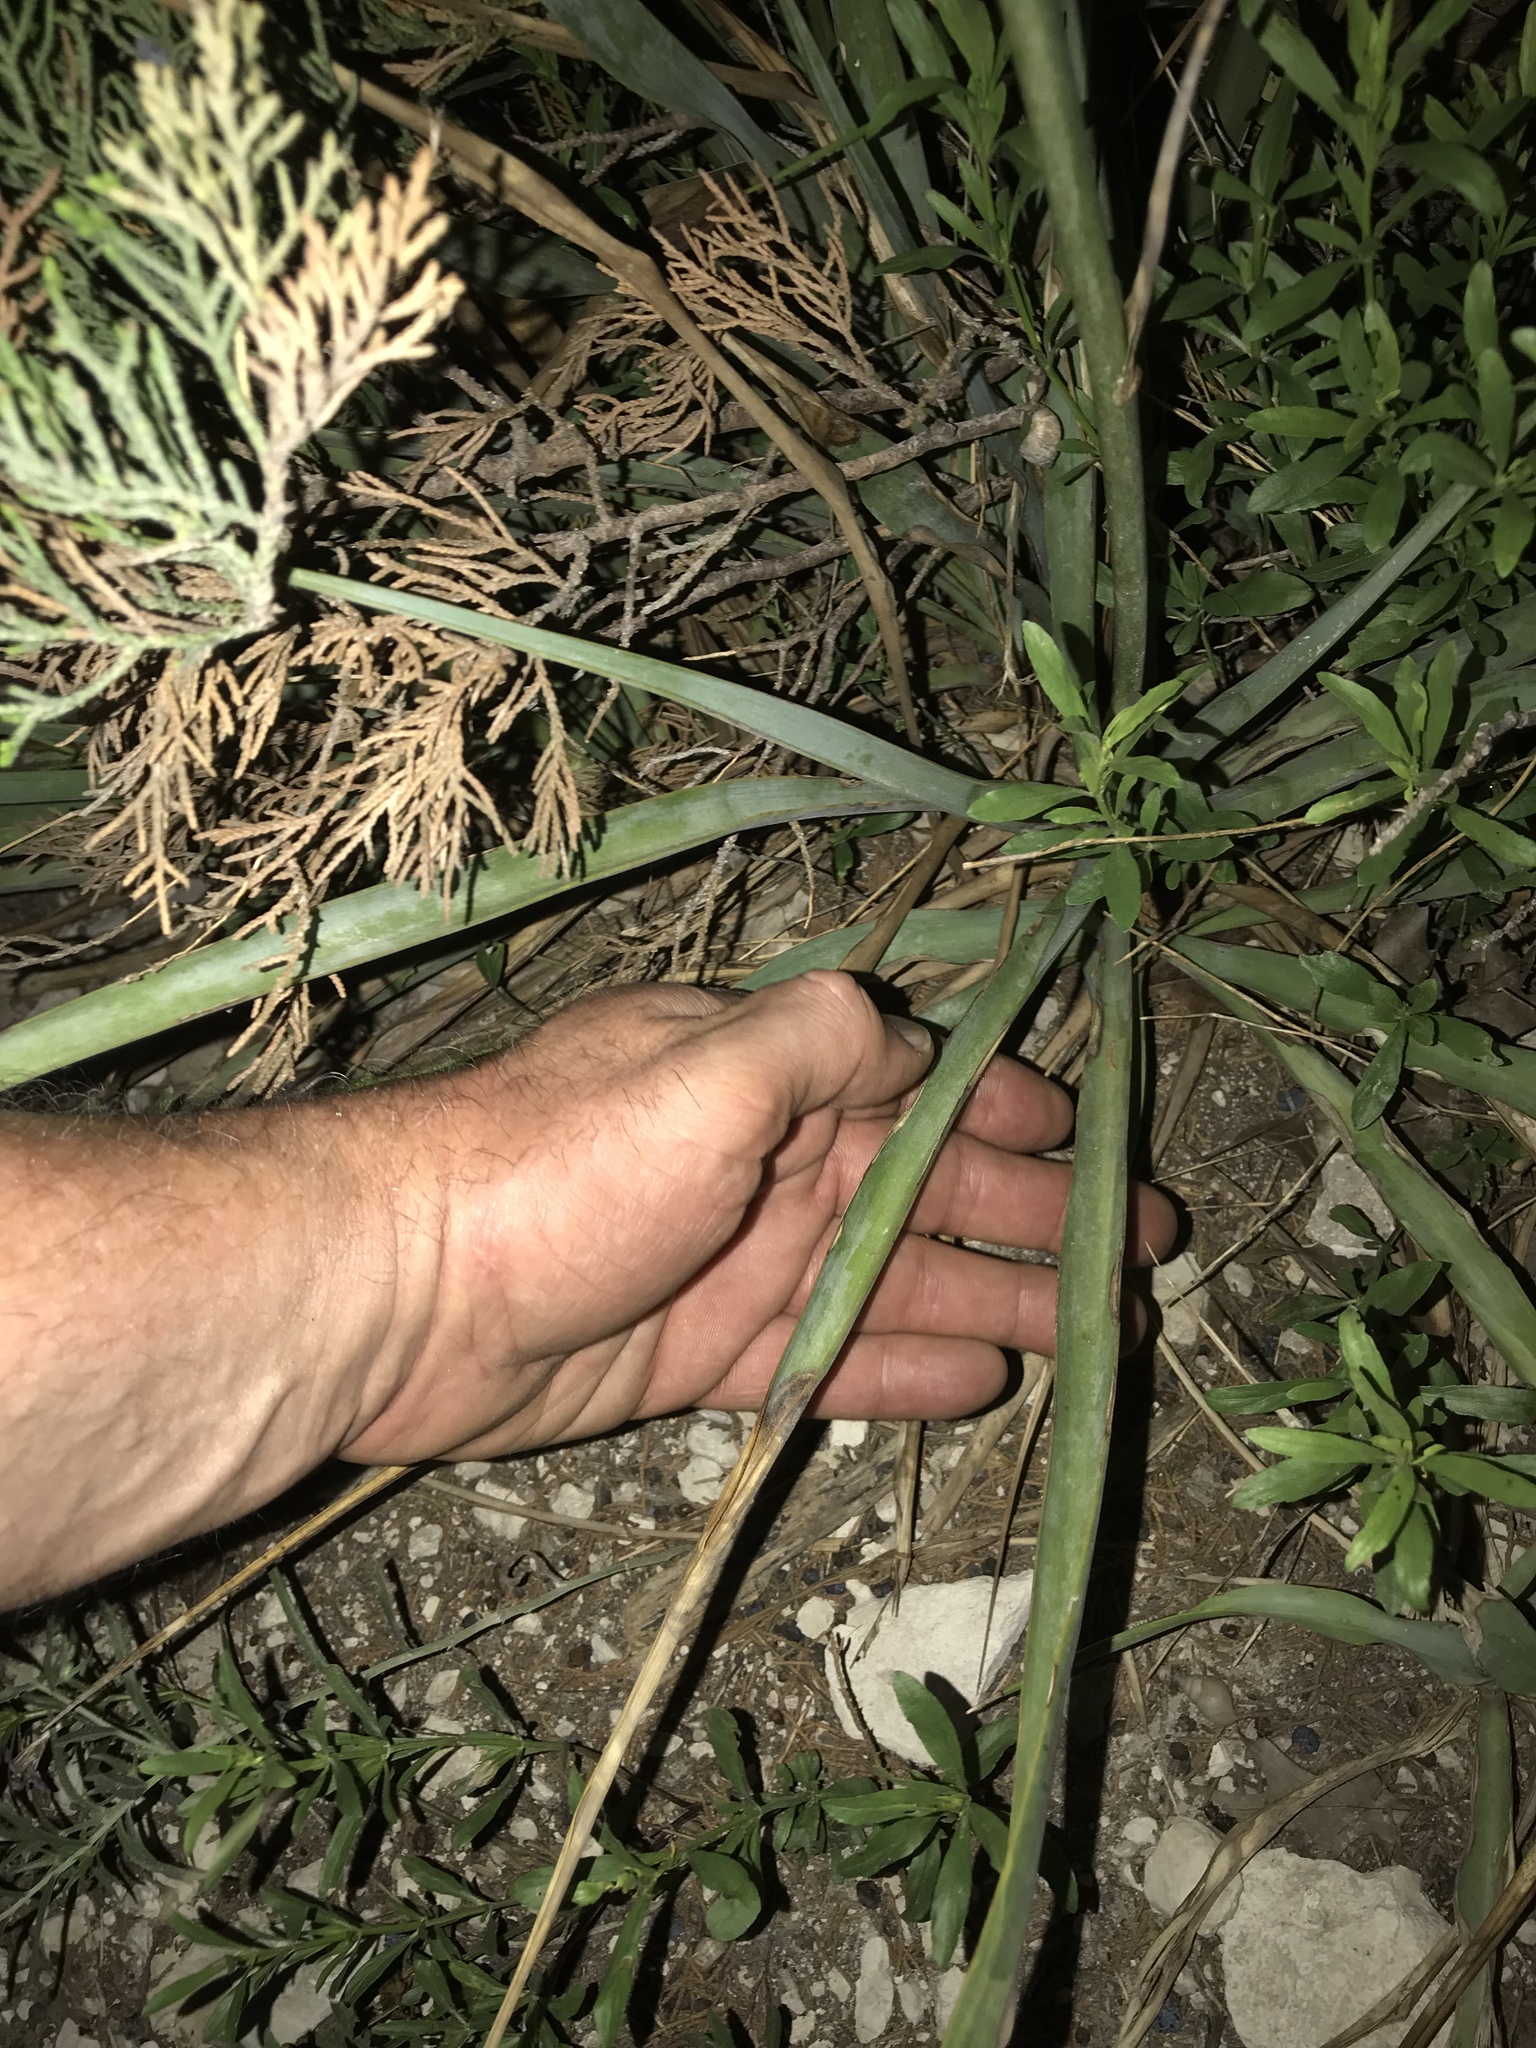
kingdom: Plantae
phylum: Tracheophyta
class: Liliopsida
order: Asparagales
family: Asparagaceae
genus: Yucca
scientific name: Yucca rupicola
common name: Twisted-leaf spanish-dagger
